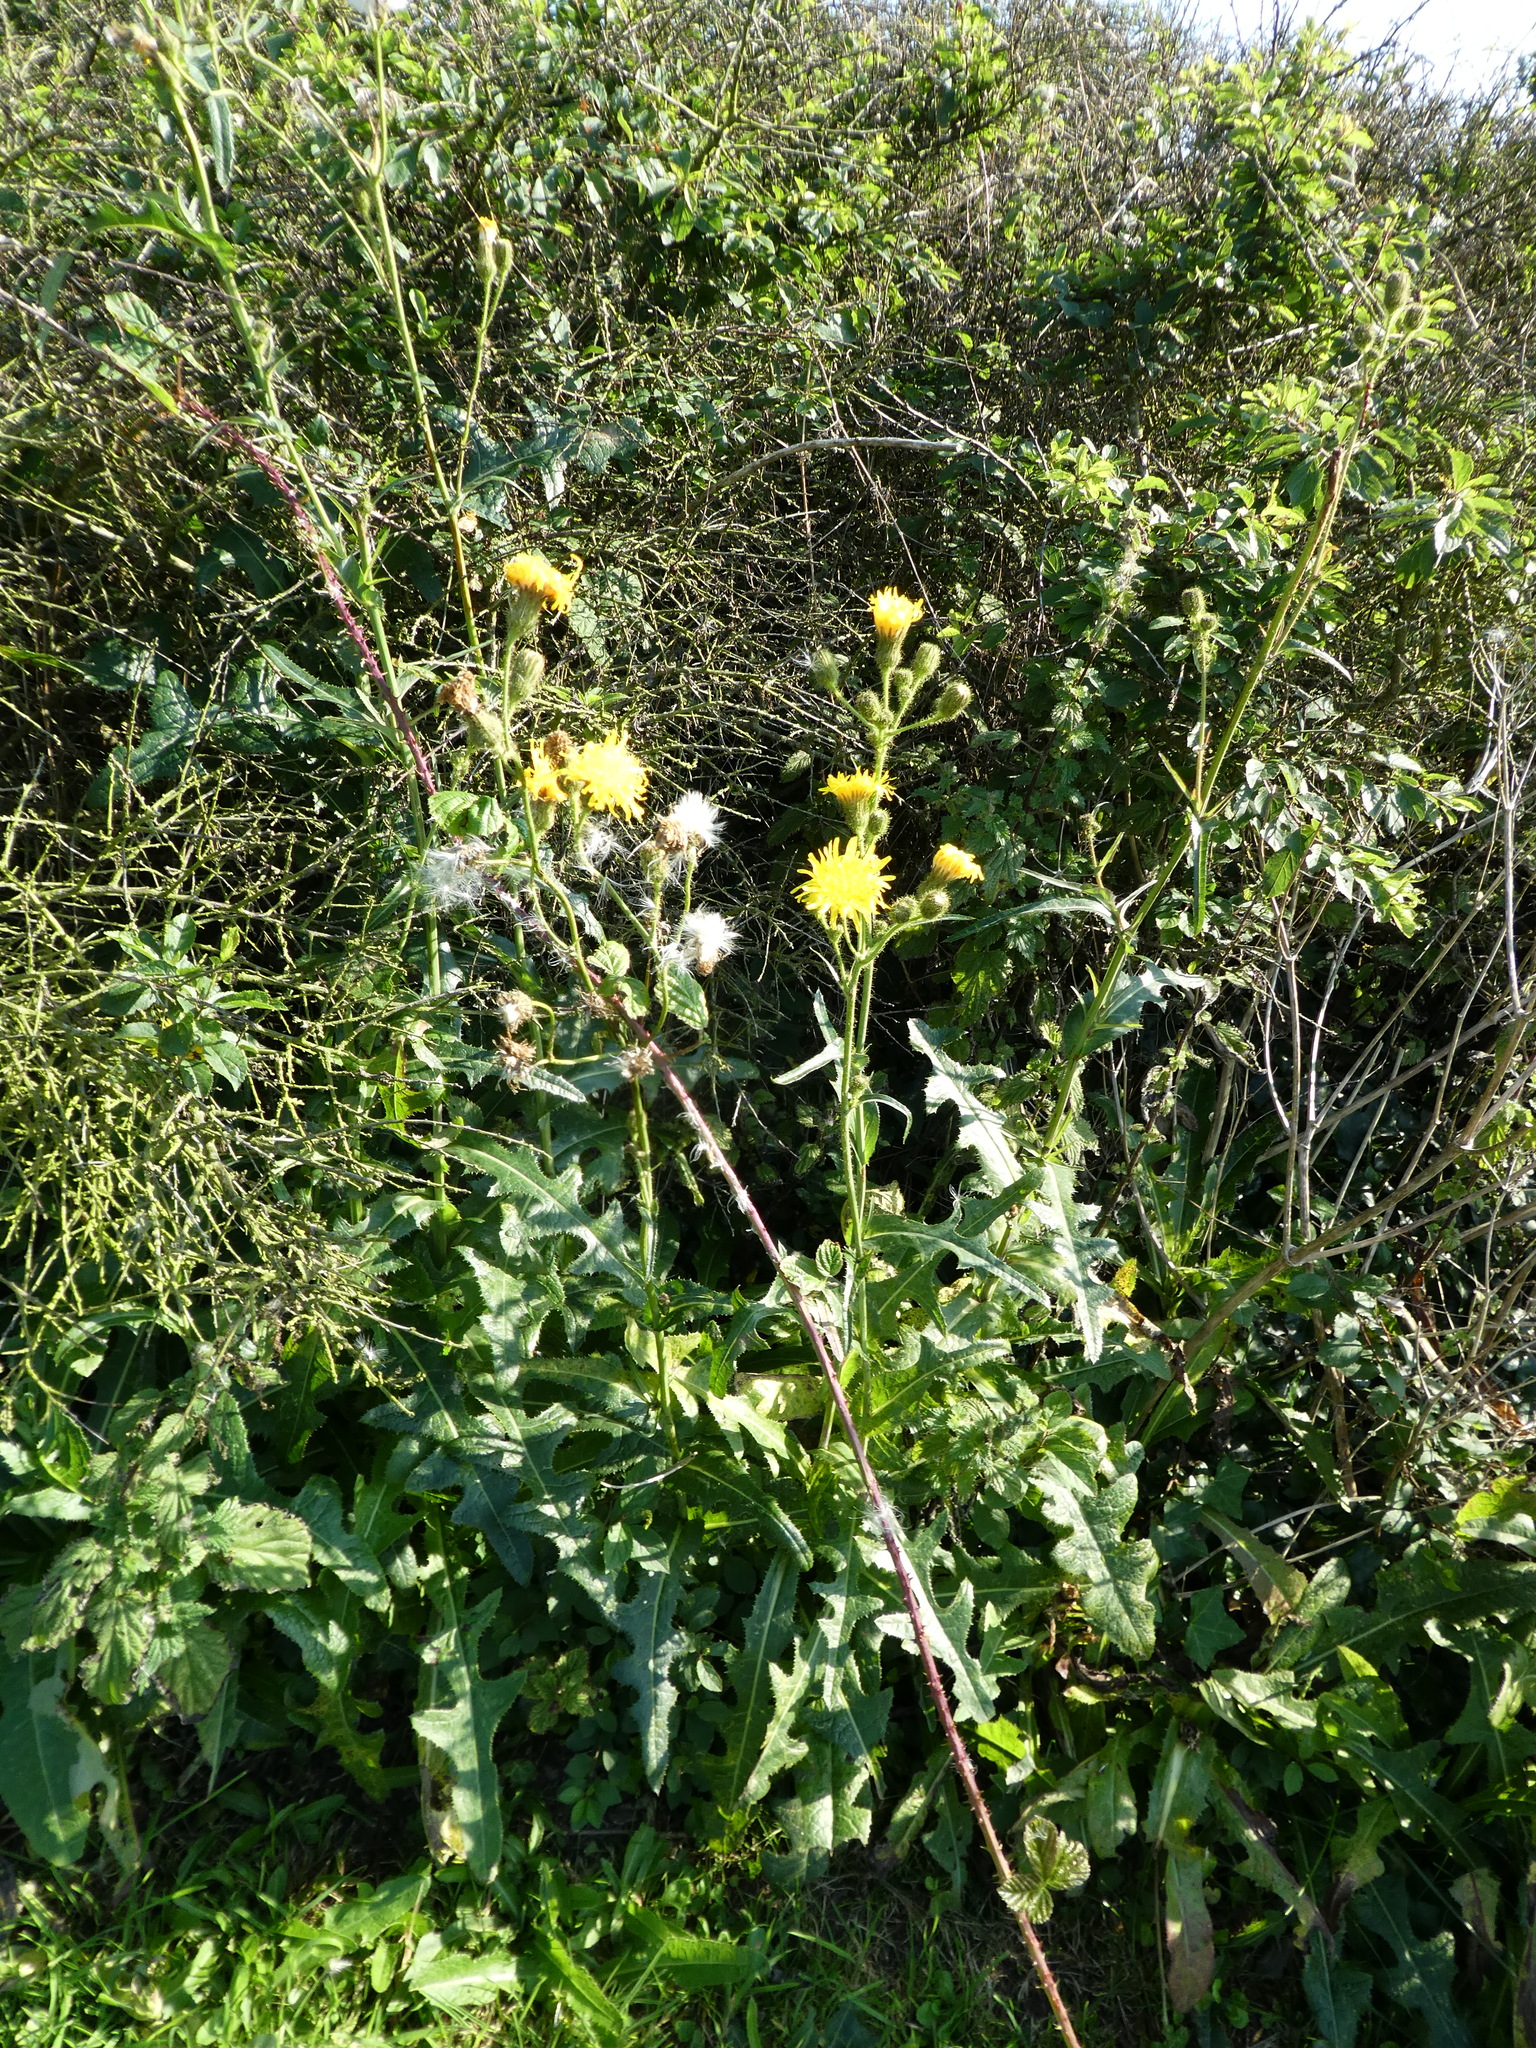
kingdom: Plantae
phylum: Tracheophyta
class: Magnoliopsida
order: Asterales
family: Asteraceae
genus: Sonchus
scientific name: Sonchus arvensis
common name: Perennial sow-thistle
